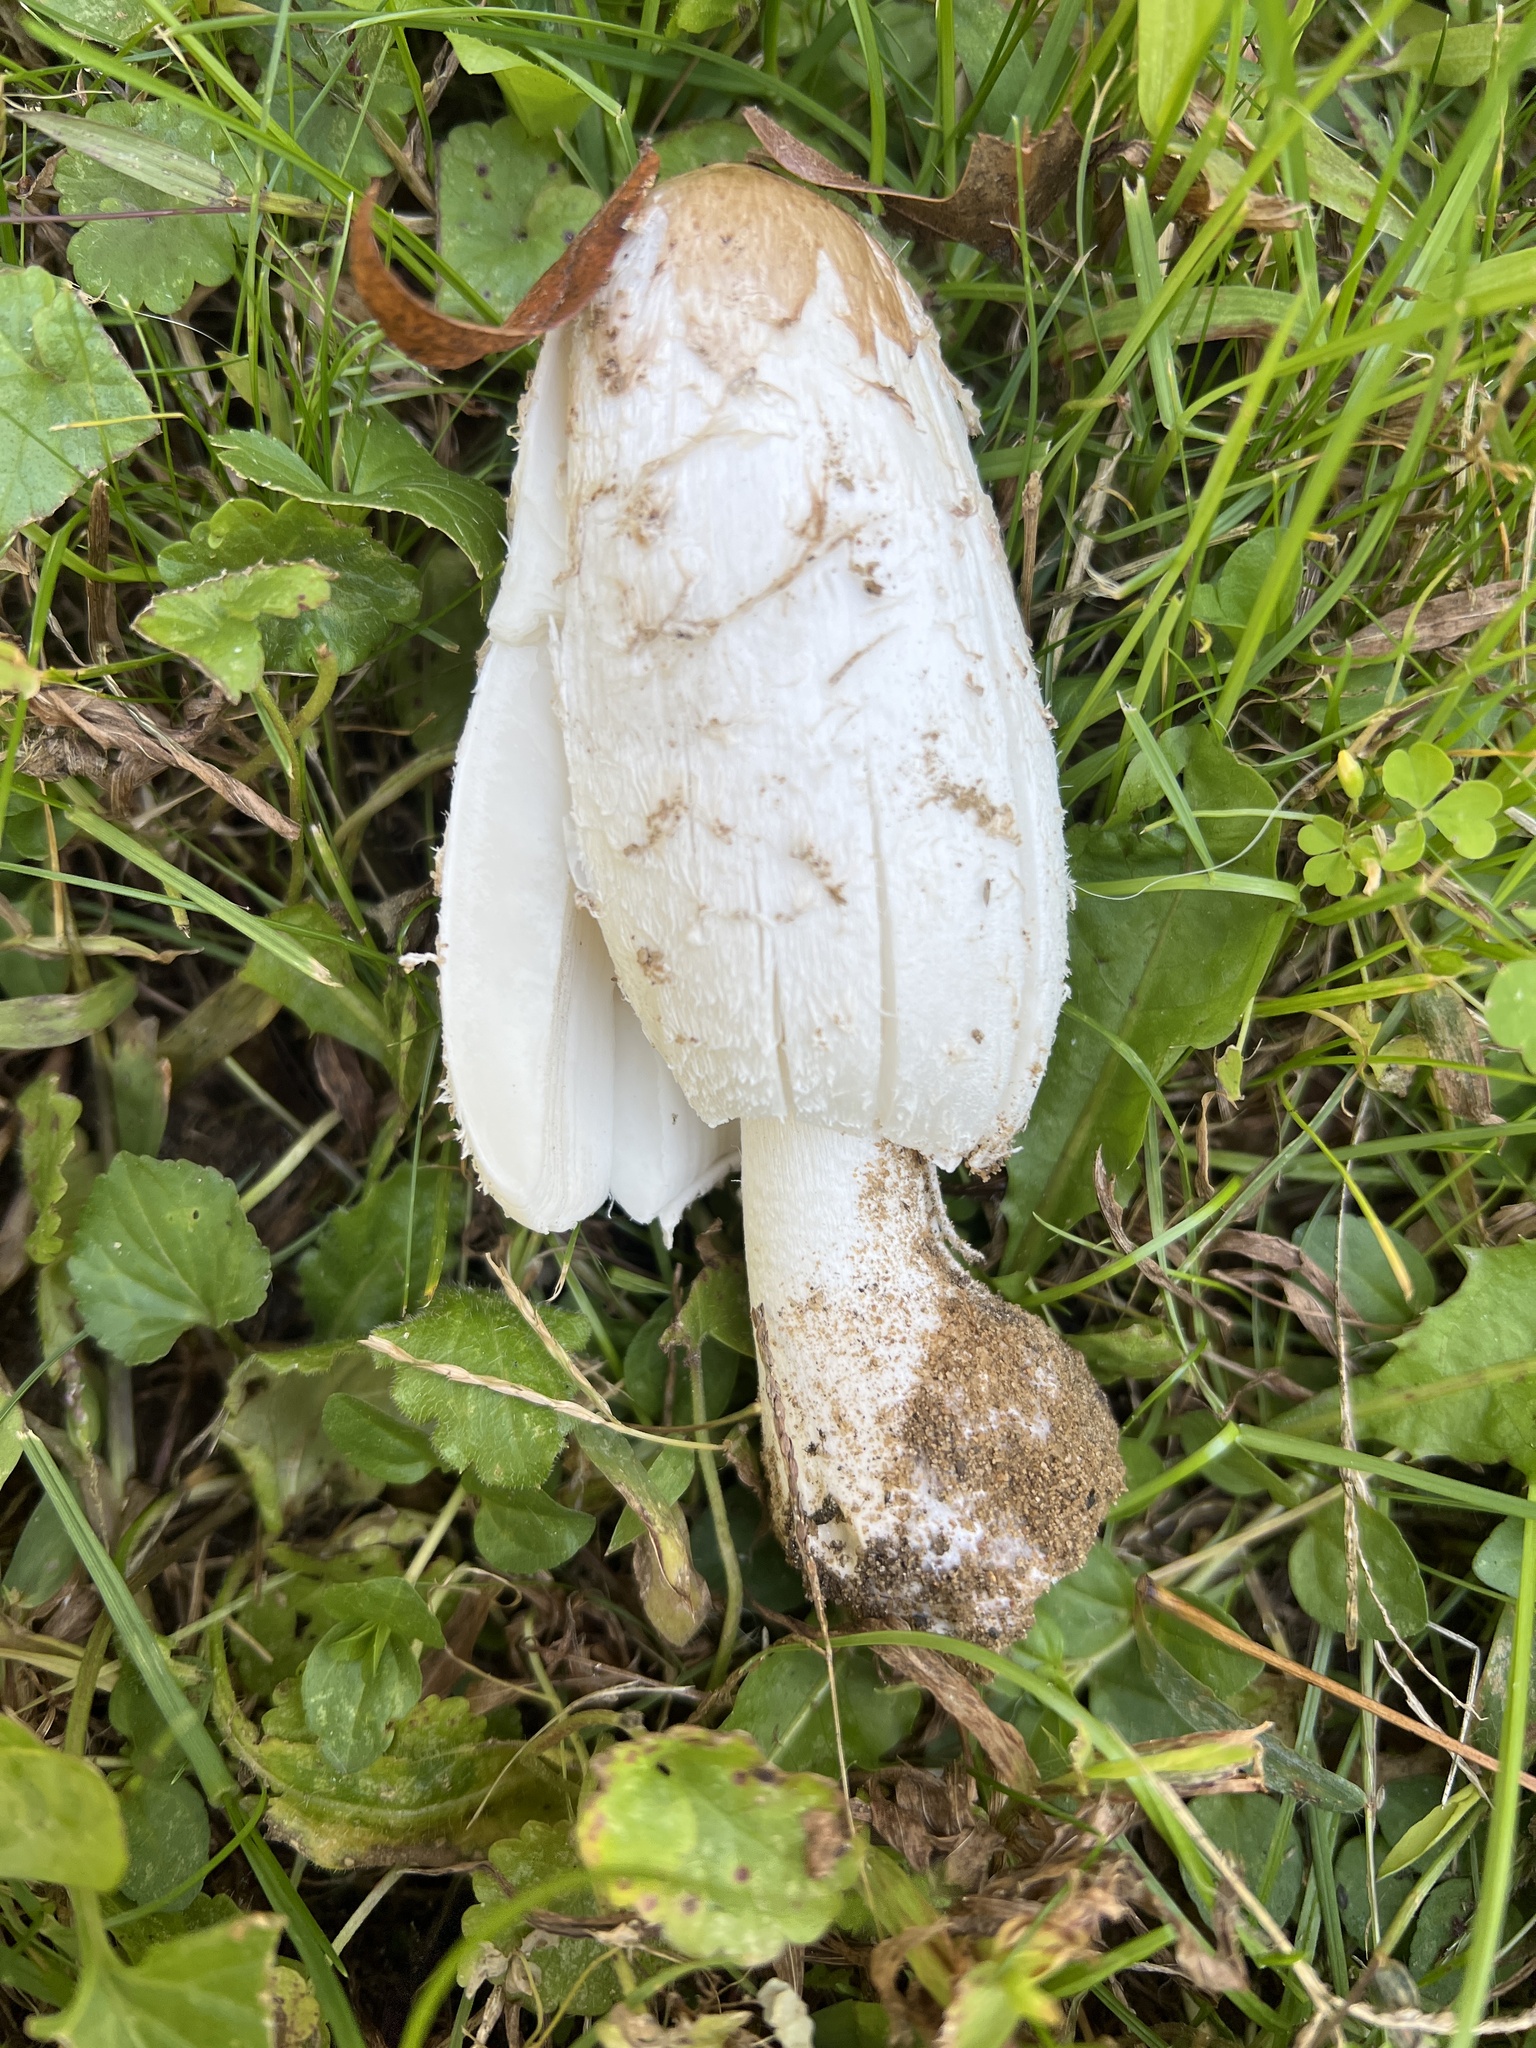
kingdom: Fungi
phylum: Basidiomycota
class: Agaricomycetes
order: Agaricales
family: Agaricaceae
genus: Coprinus
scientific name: Coprinus comatus
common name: Lawyer's wig
